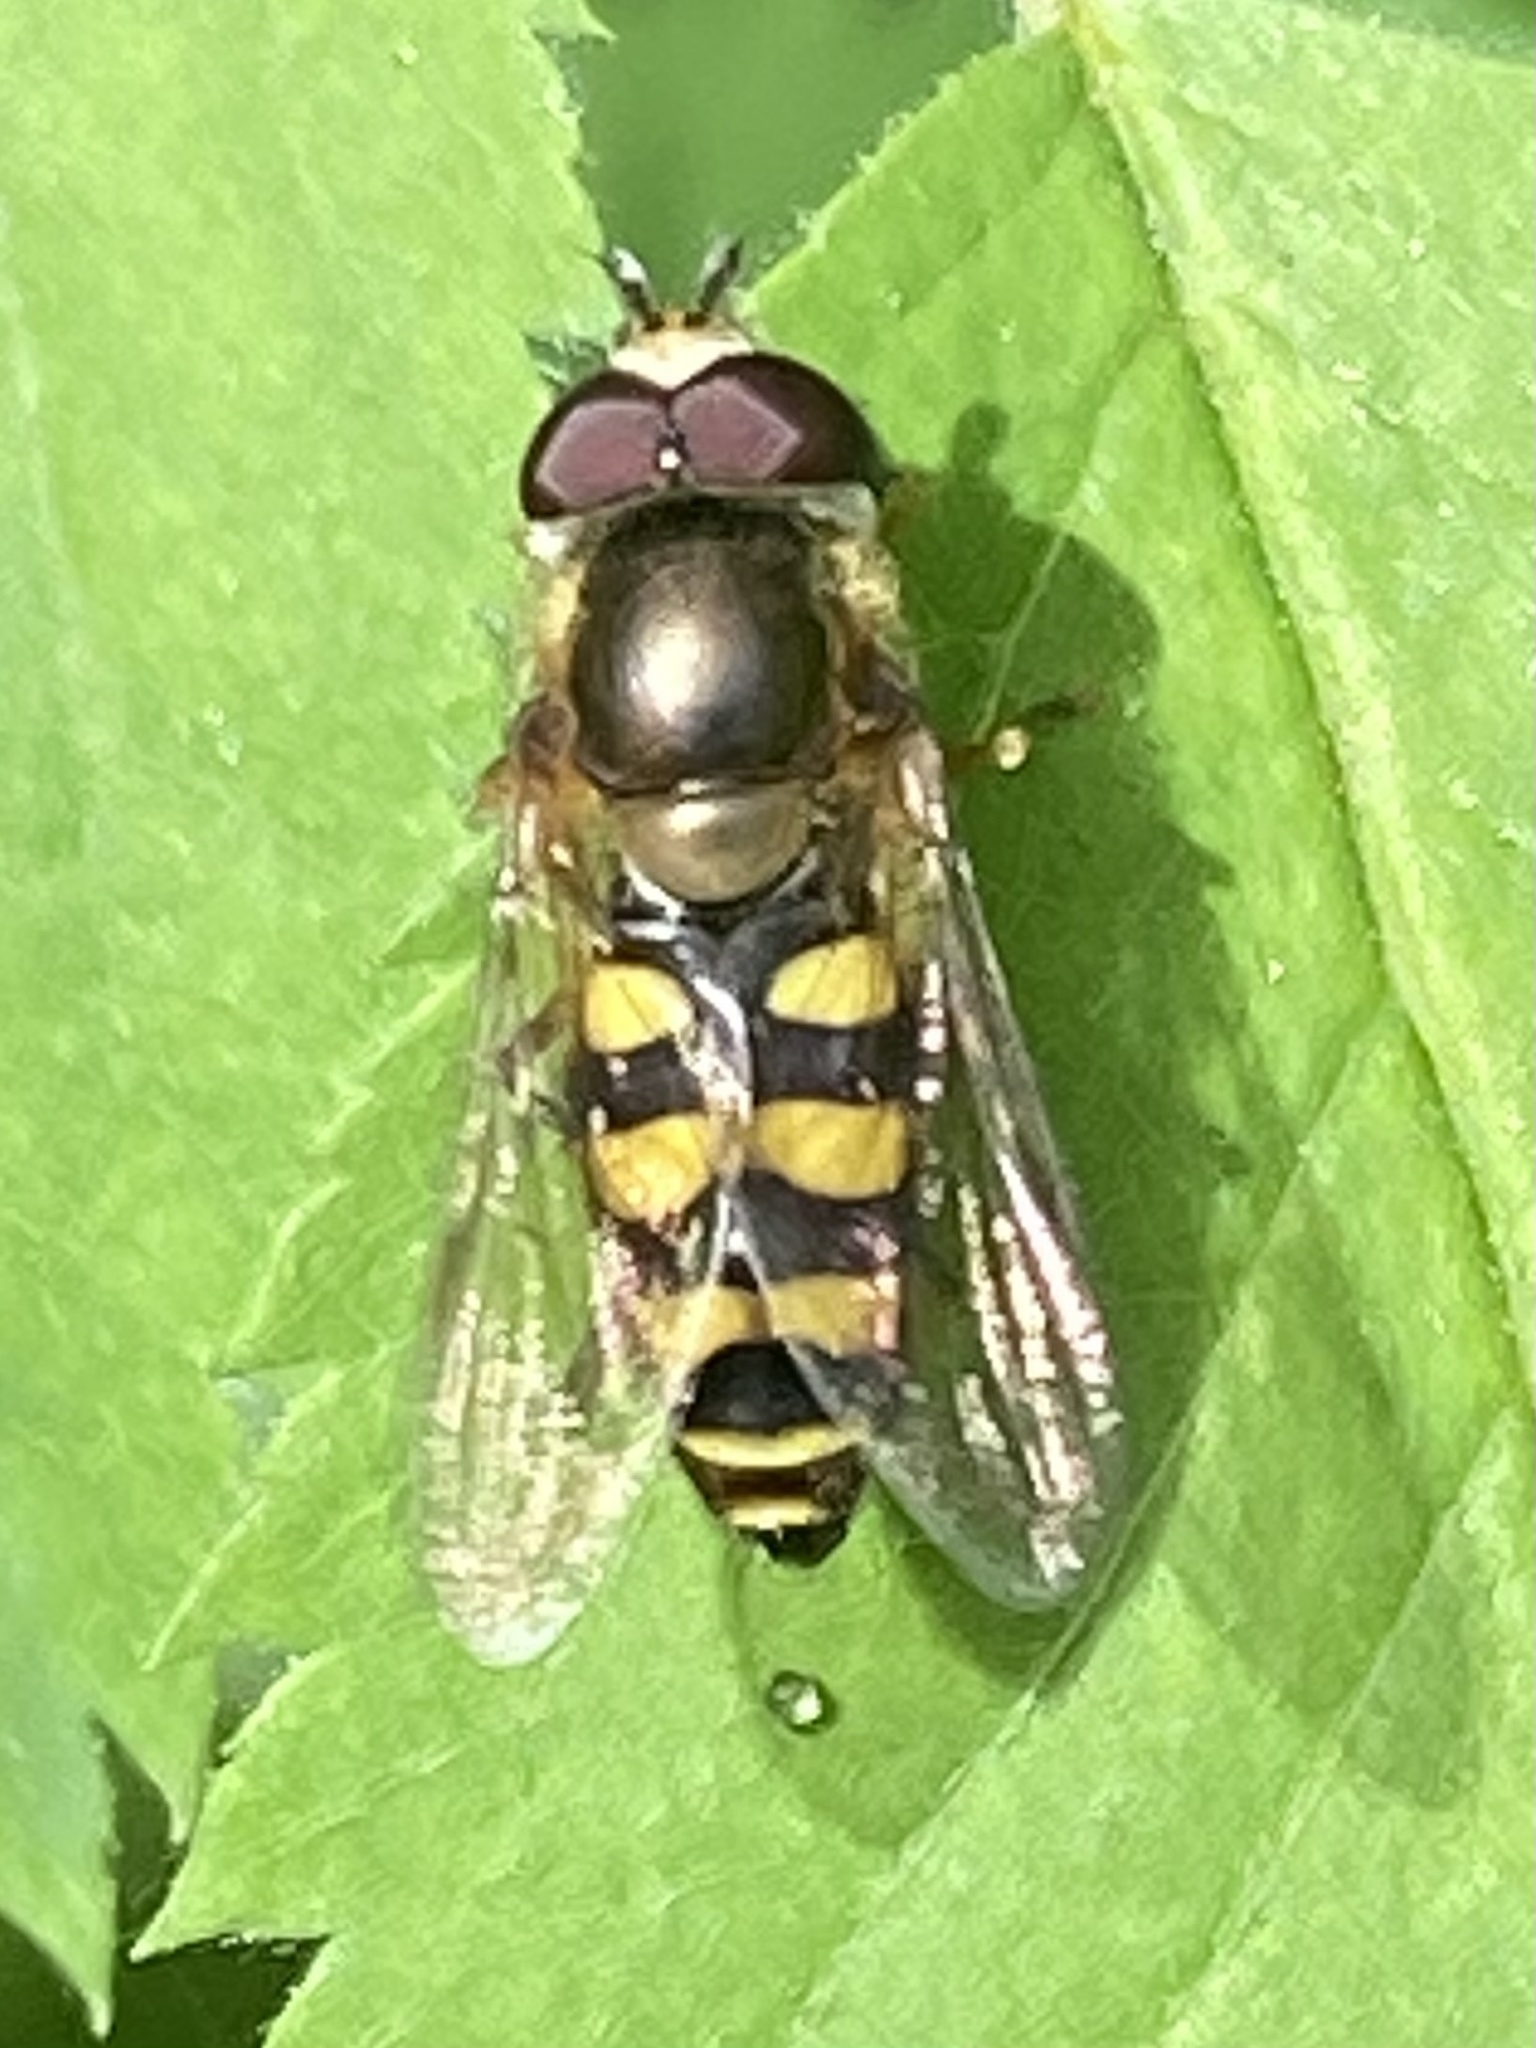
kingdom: Animalia
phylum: Arthropoda
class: Insecta
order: Diptera
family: Syrphidae
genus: Eupeodes
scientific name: Eupeodes fumipennis
